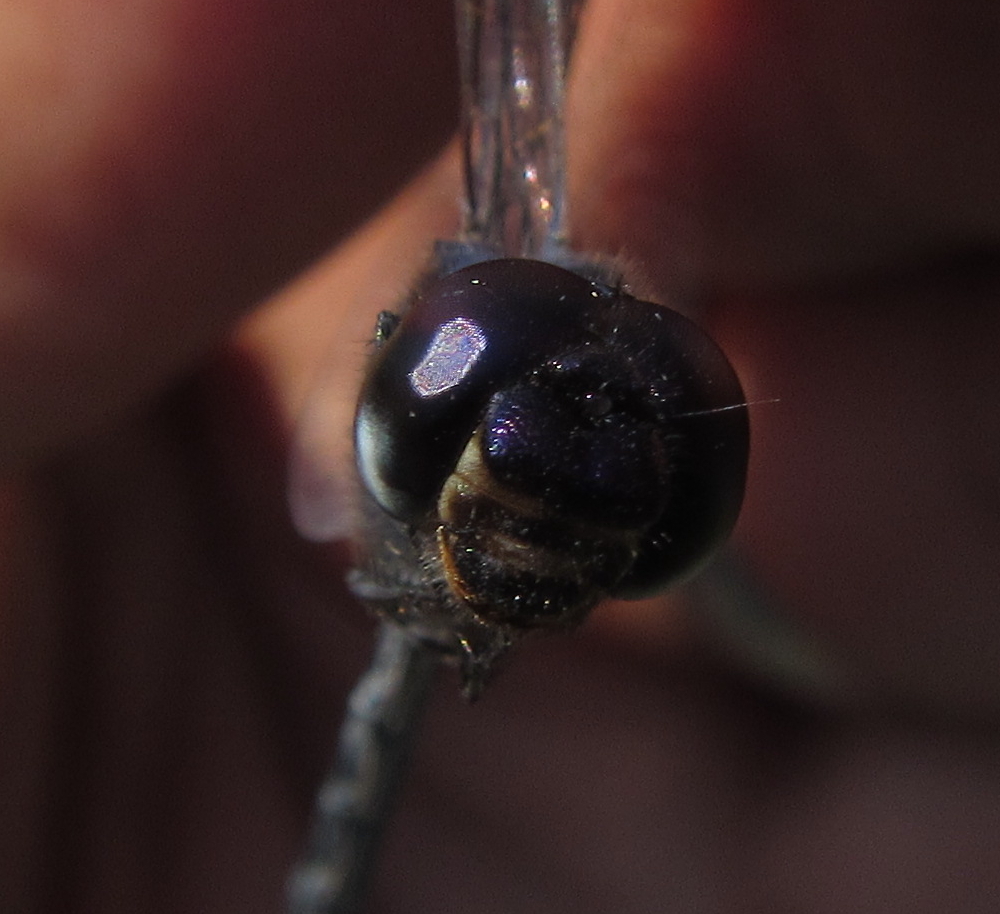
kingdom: Animalia
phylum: Arthropoda
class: Insecta
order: Odonata
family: Libellulidae
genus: Trithemis
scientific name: Trithemis hecate
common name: Silhouette dropwing
